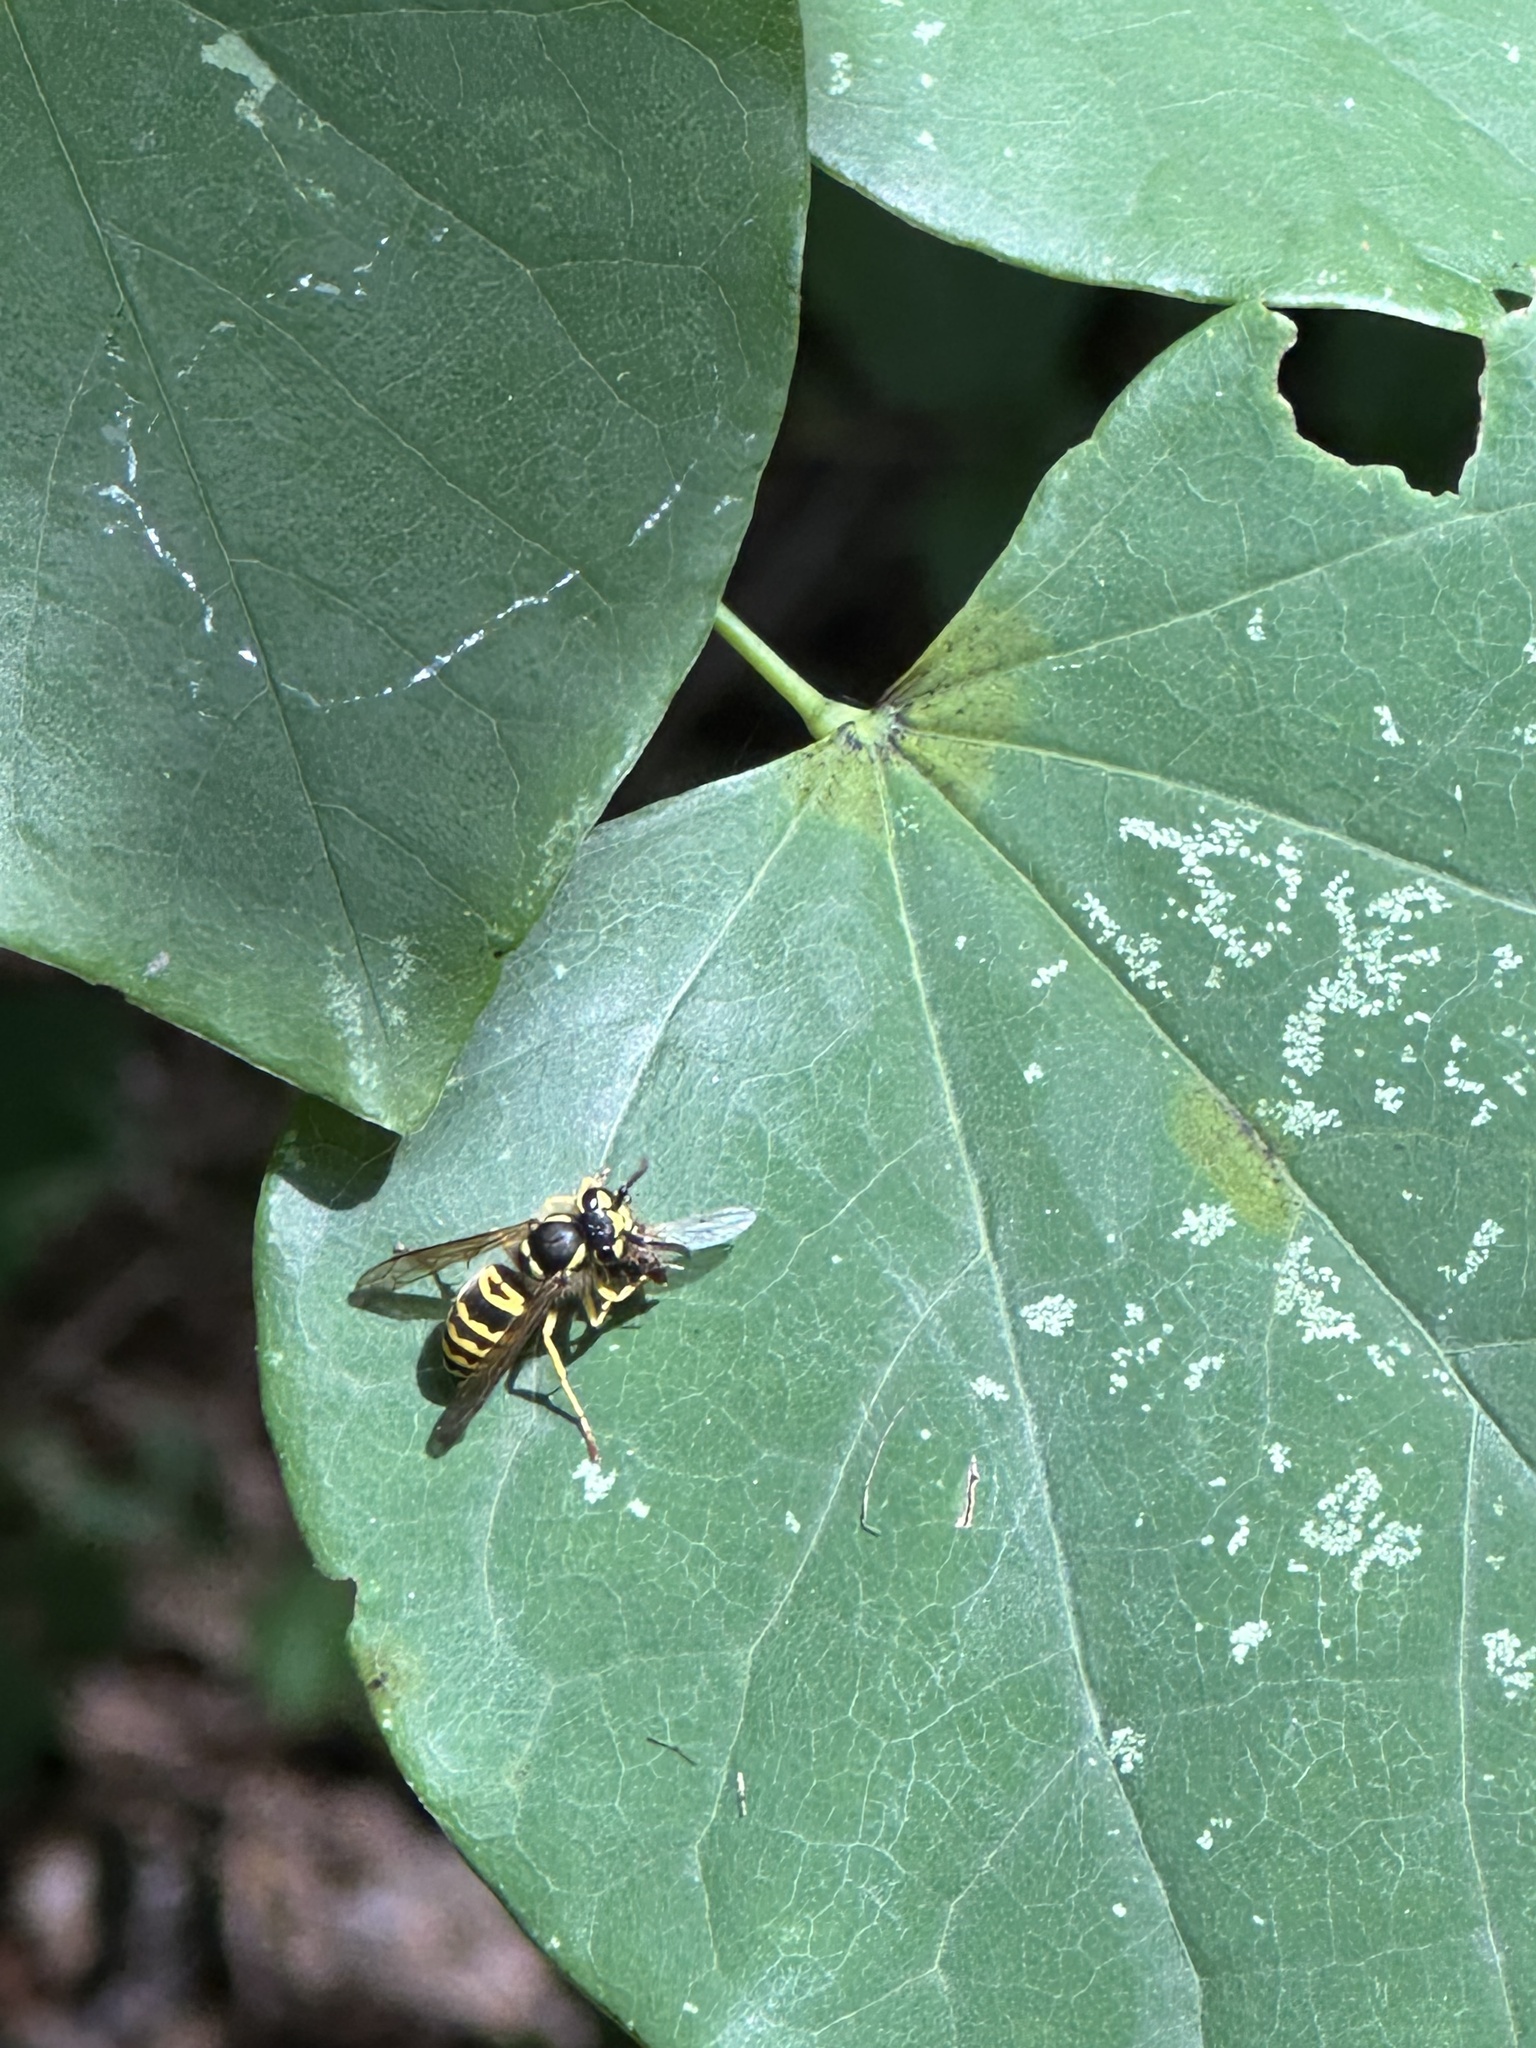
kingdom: Animalia
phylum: Arthropoda
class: Insecta
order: Hymenoptera
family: Vespidae
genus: Vespula
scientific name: Vespula maculifrons
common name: Eastern yellowjacket
